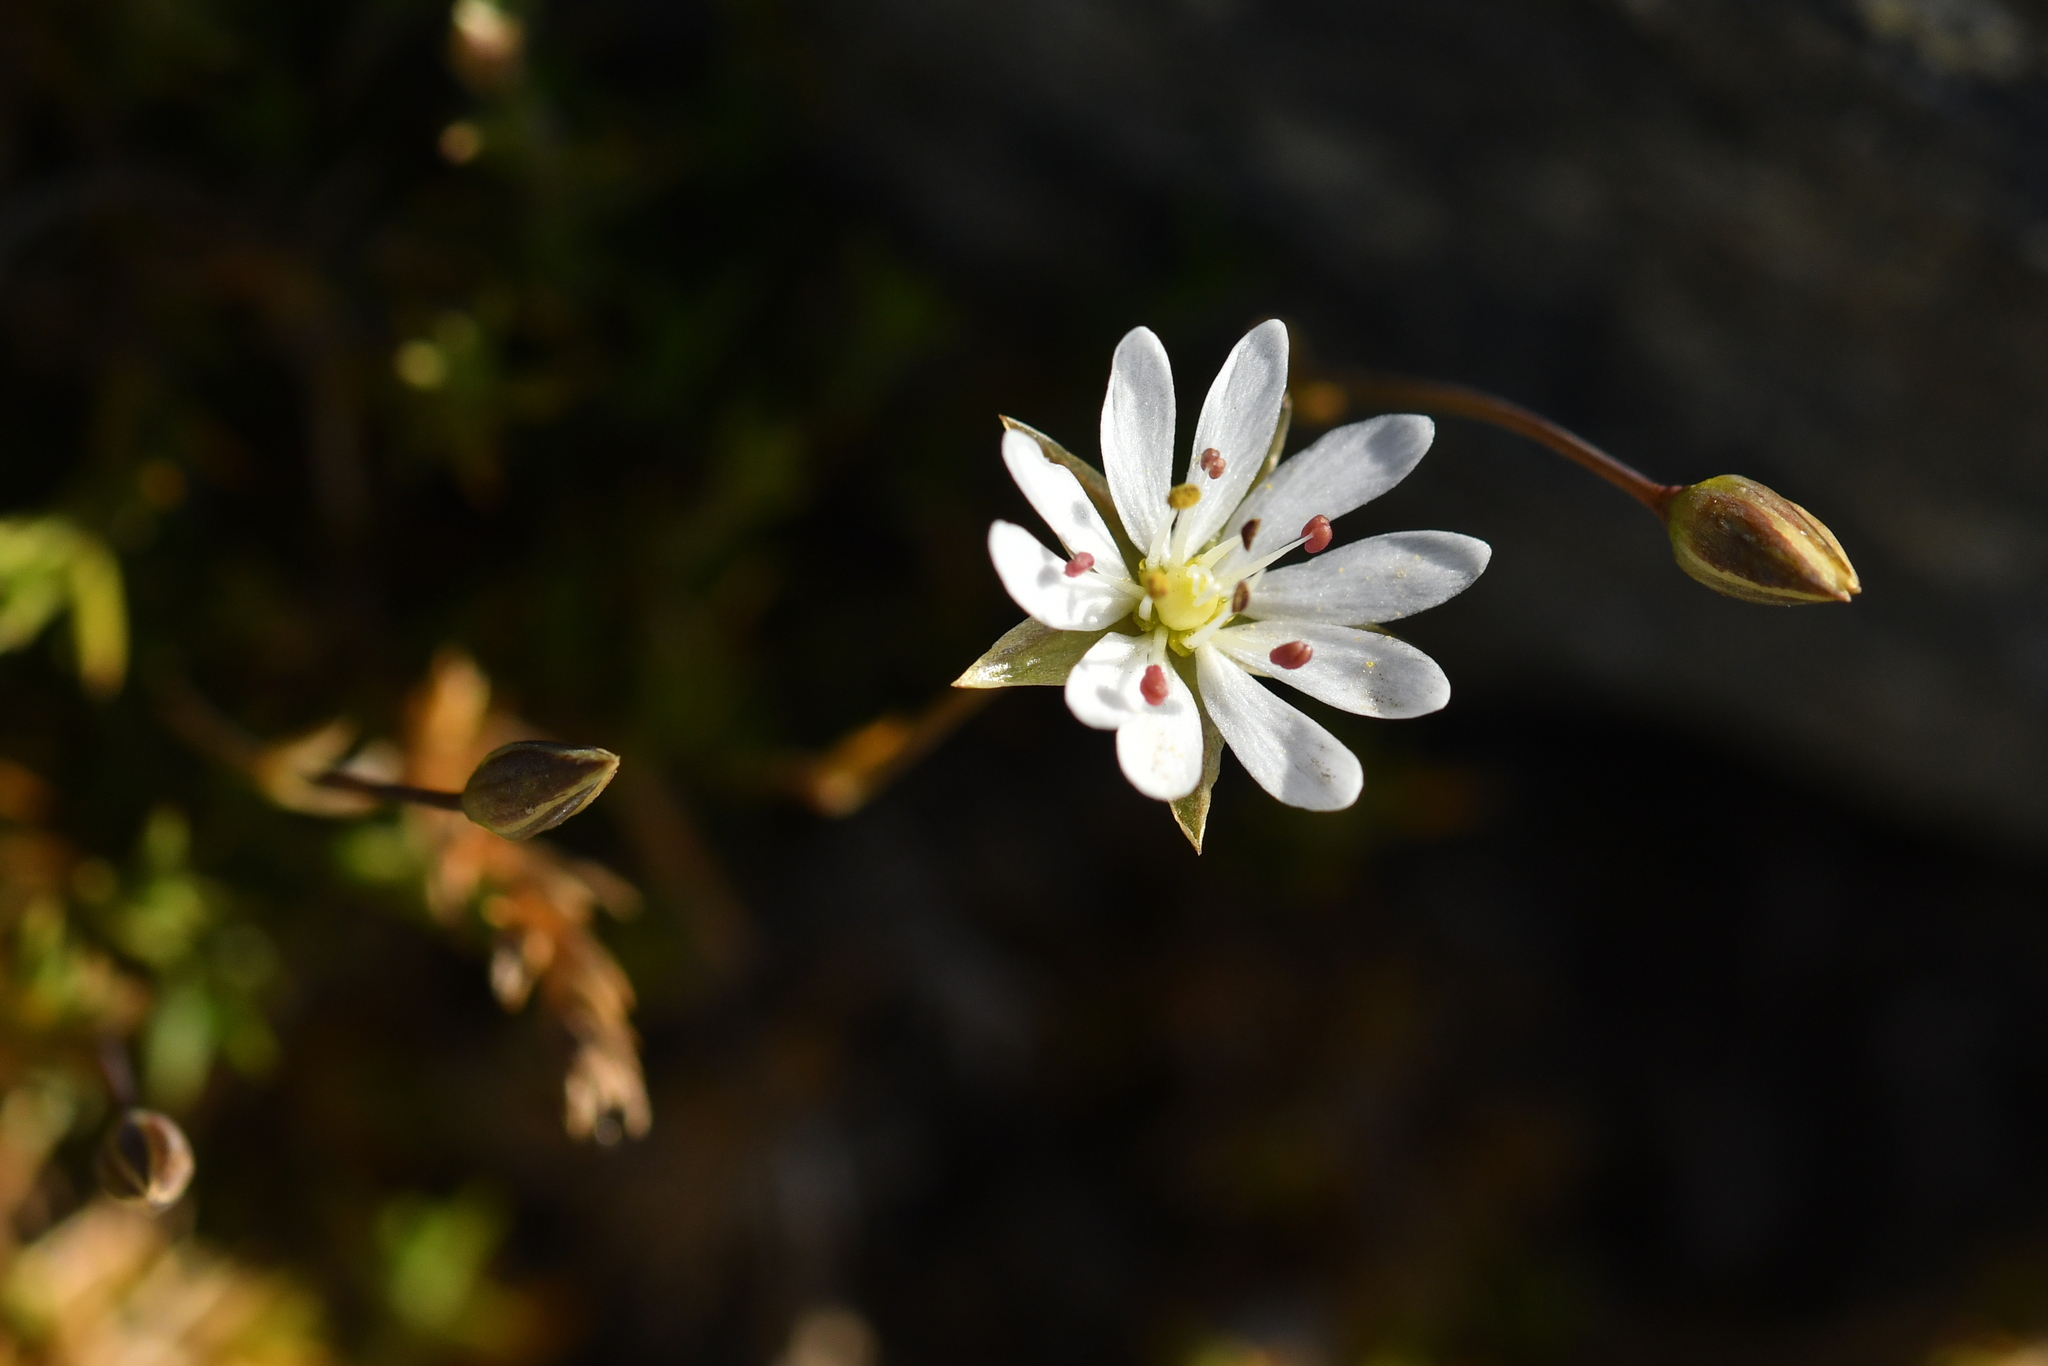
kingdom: Plantae
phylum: Tracheophyta
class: Magnoliopsida
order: Caryophyllales
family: Caryophyllaceae
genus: Stellaria
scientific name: Stellaria gracilenta
